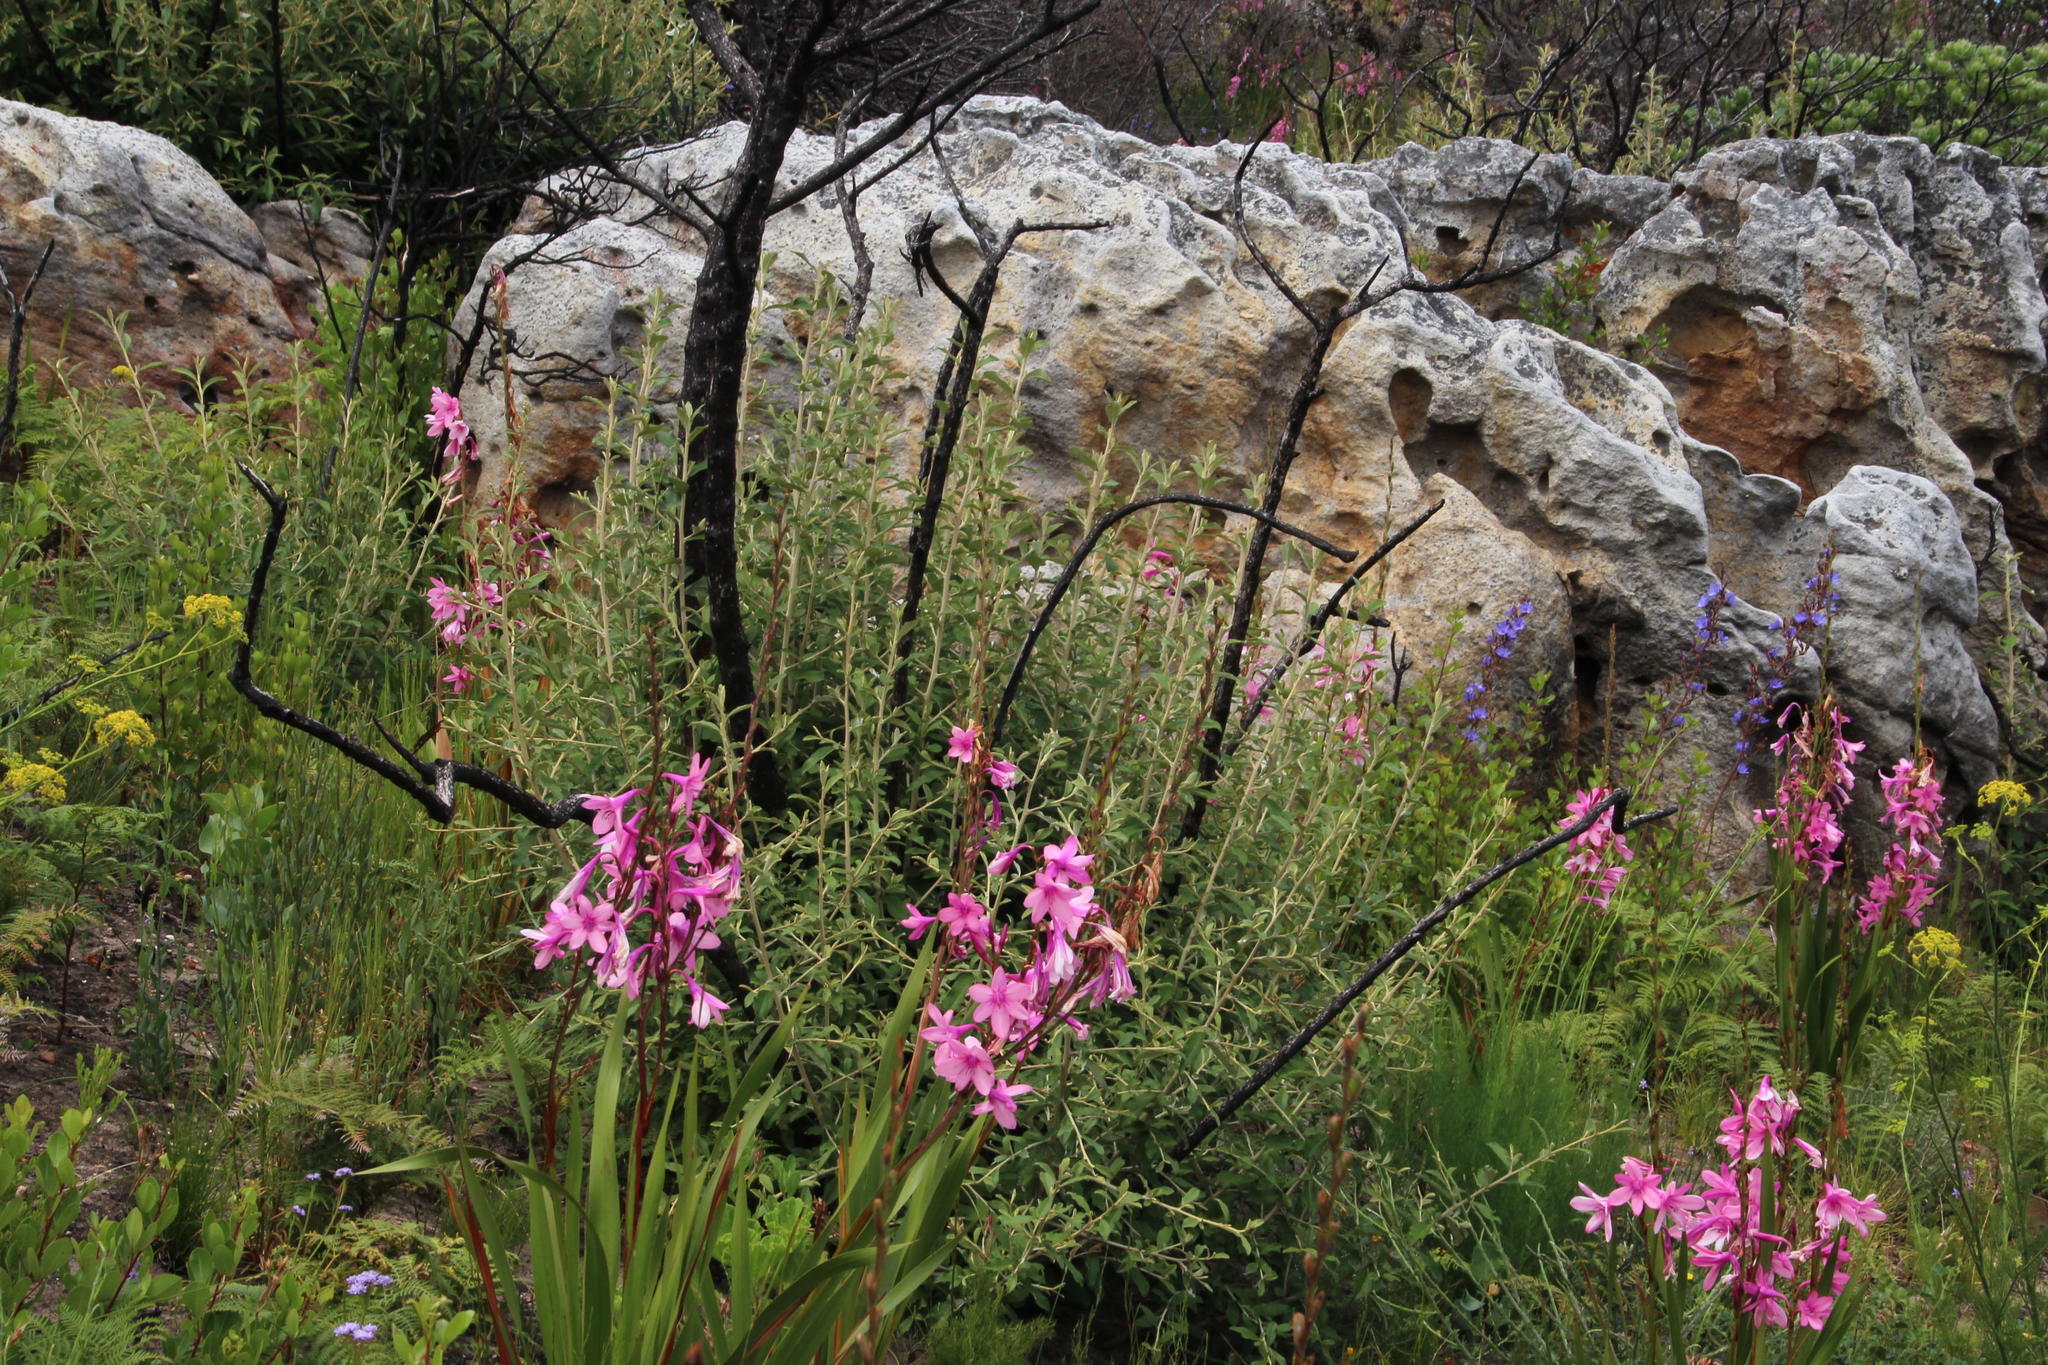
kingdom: Plantae
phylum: Tracheophyta
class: Magnoliopsida
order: Asterales
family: Asteraceae
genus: Tarchonanthus
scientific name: Tarchonanthus littoralis
